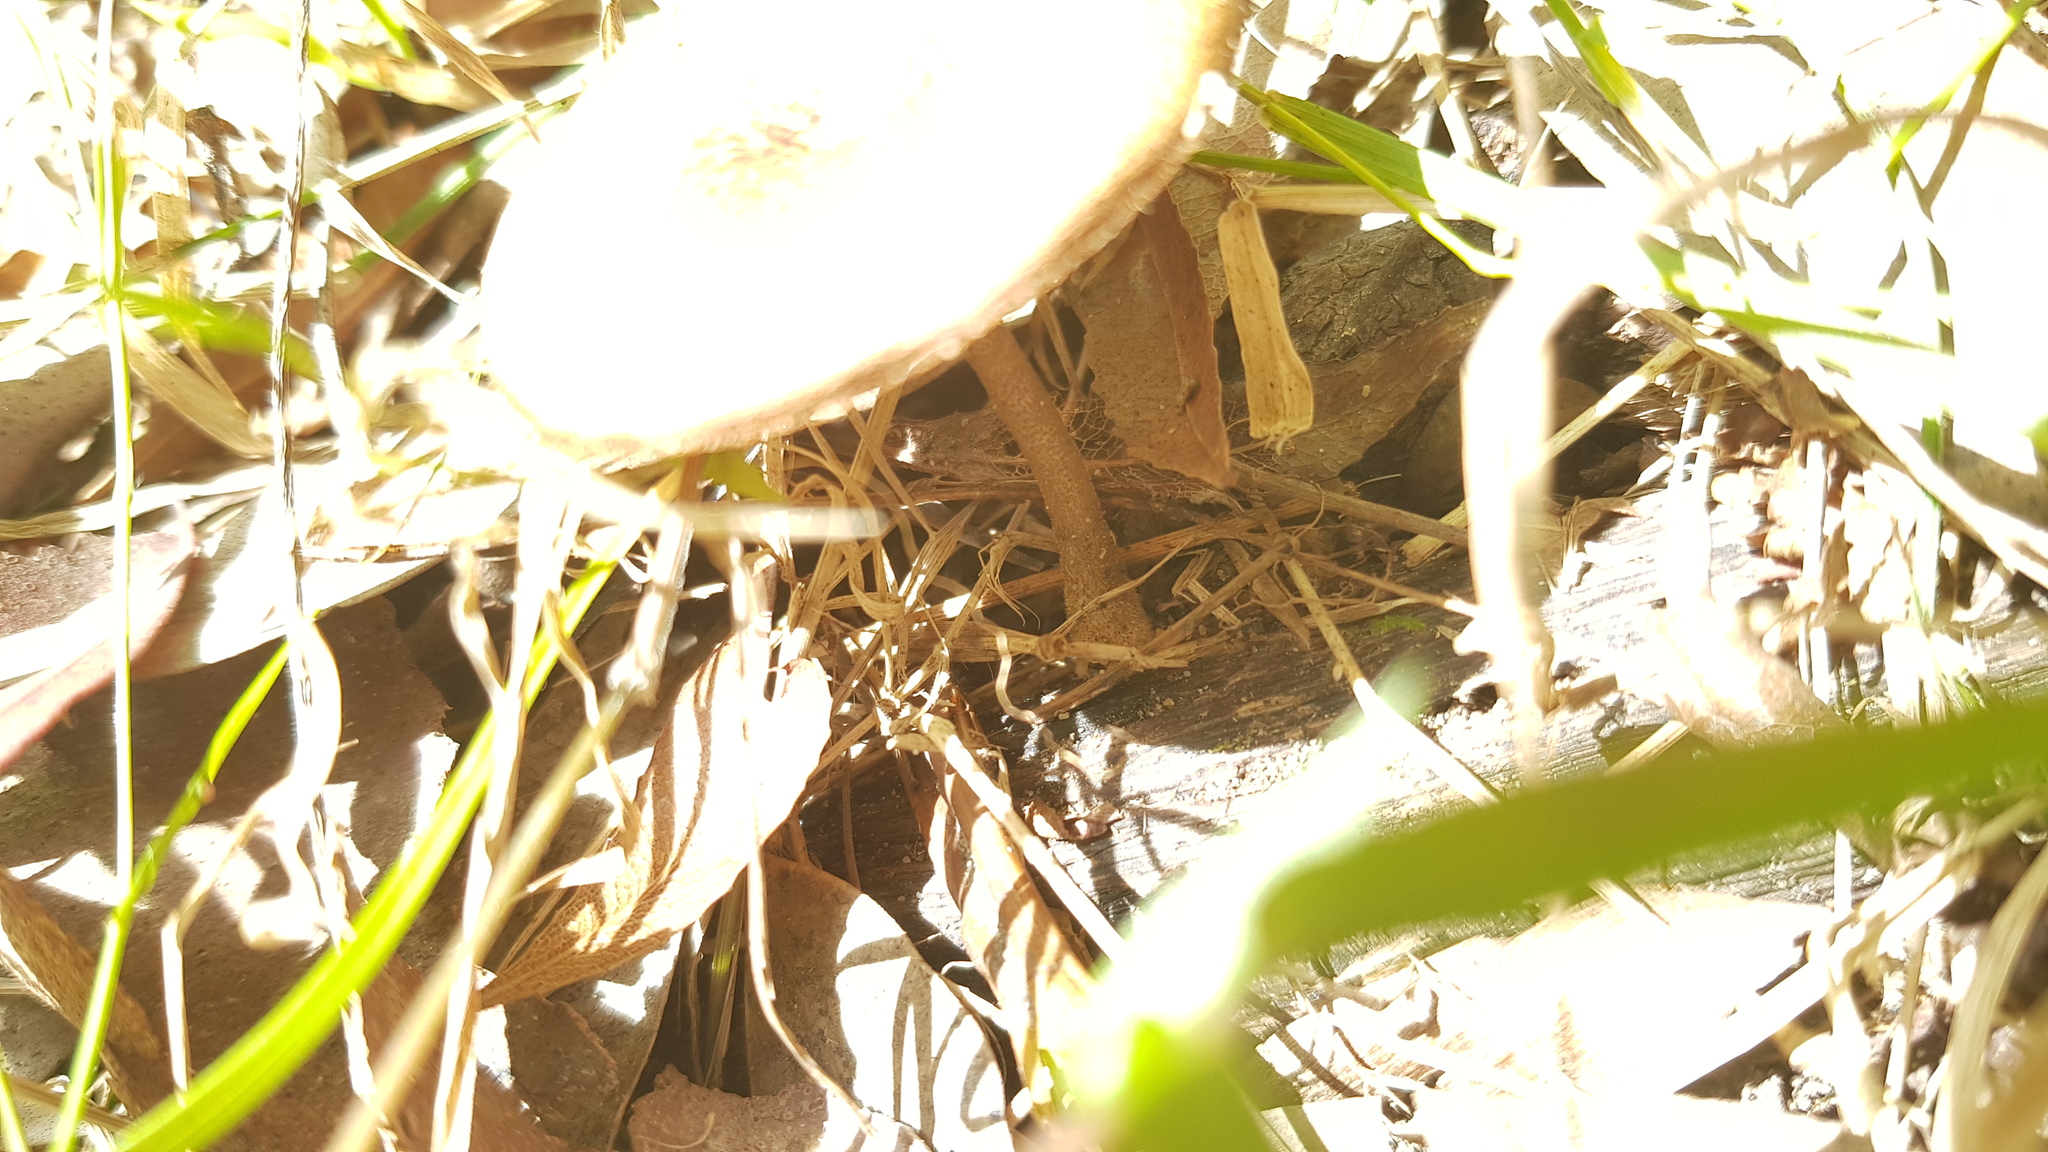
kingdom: Fungi
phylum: Basidiomycota
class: Agaricomycetes
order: Polyporales
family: Polyporaceae
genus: Lentinus
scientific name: Lentinus arcularius
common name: Spring polypore
